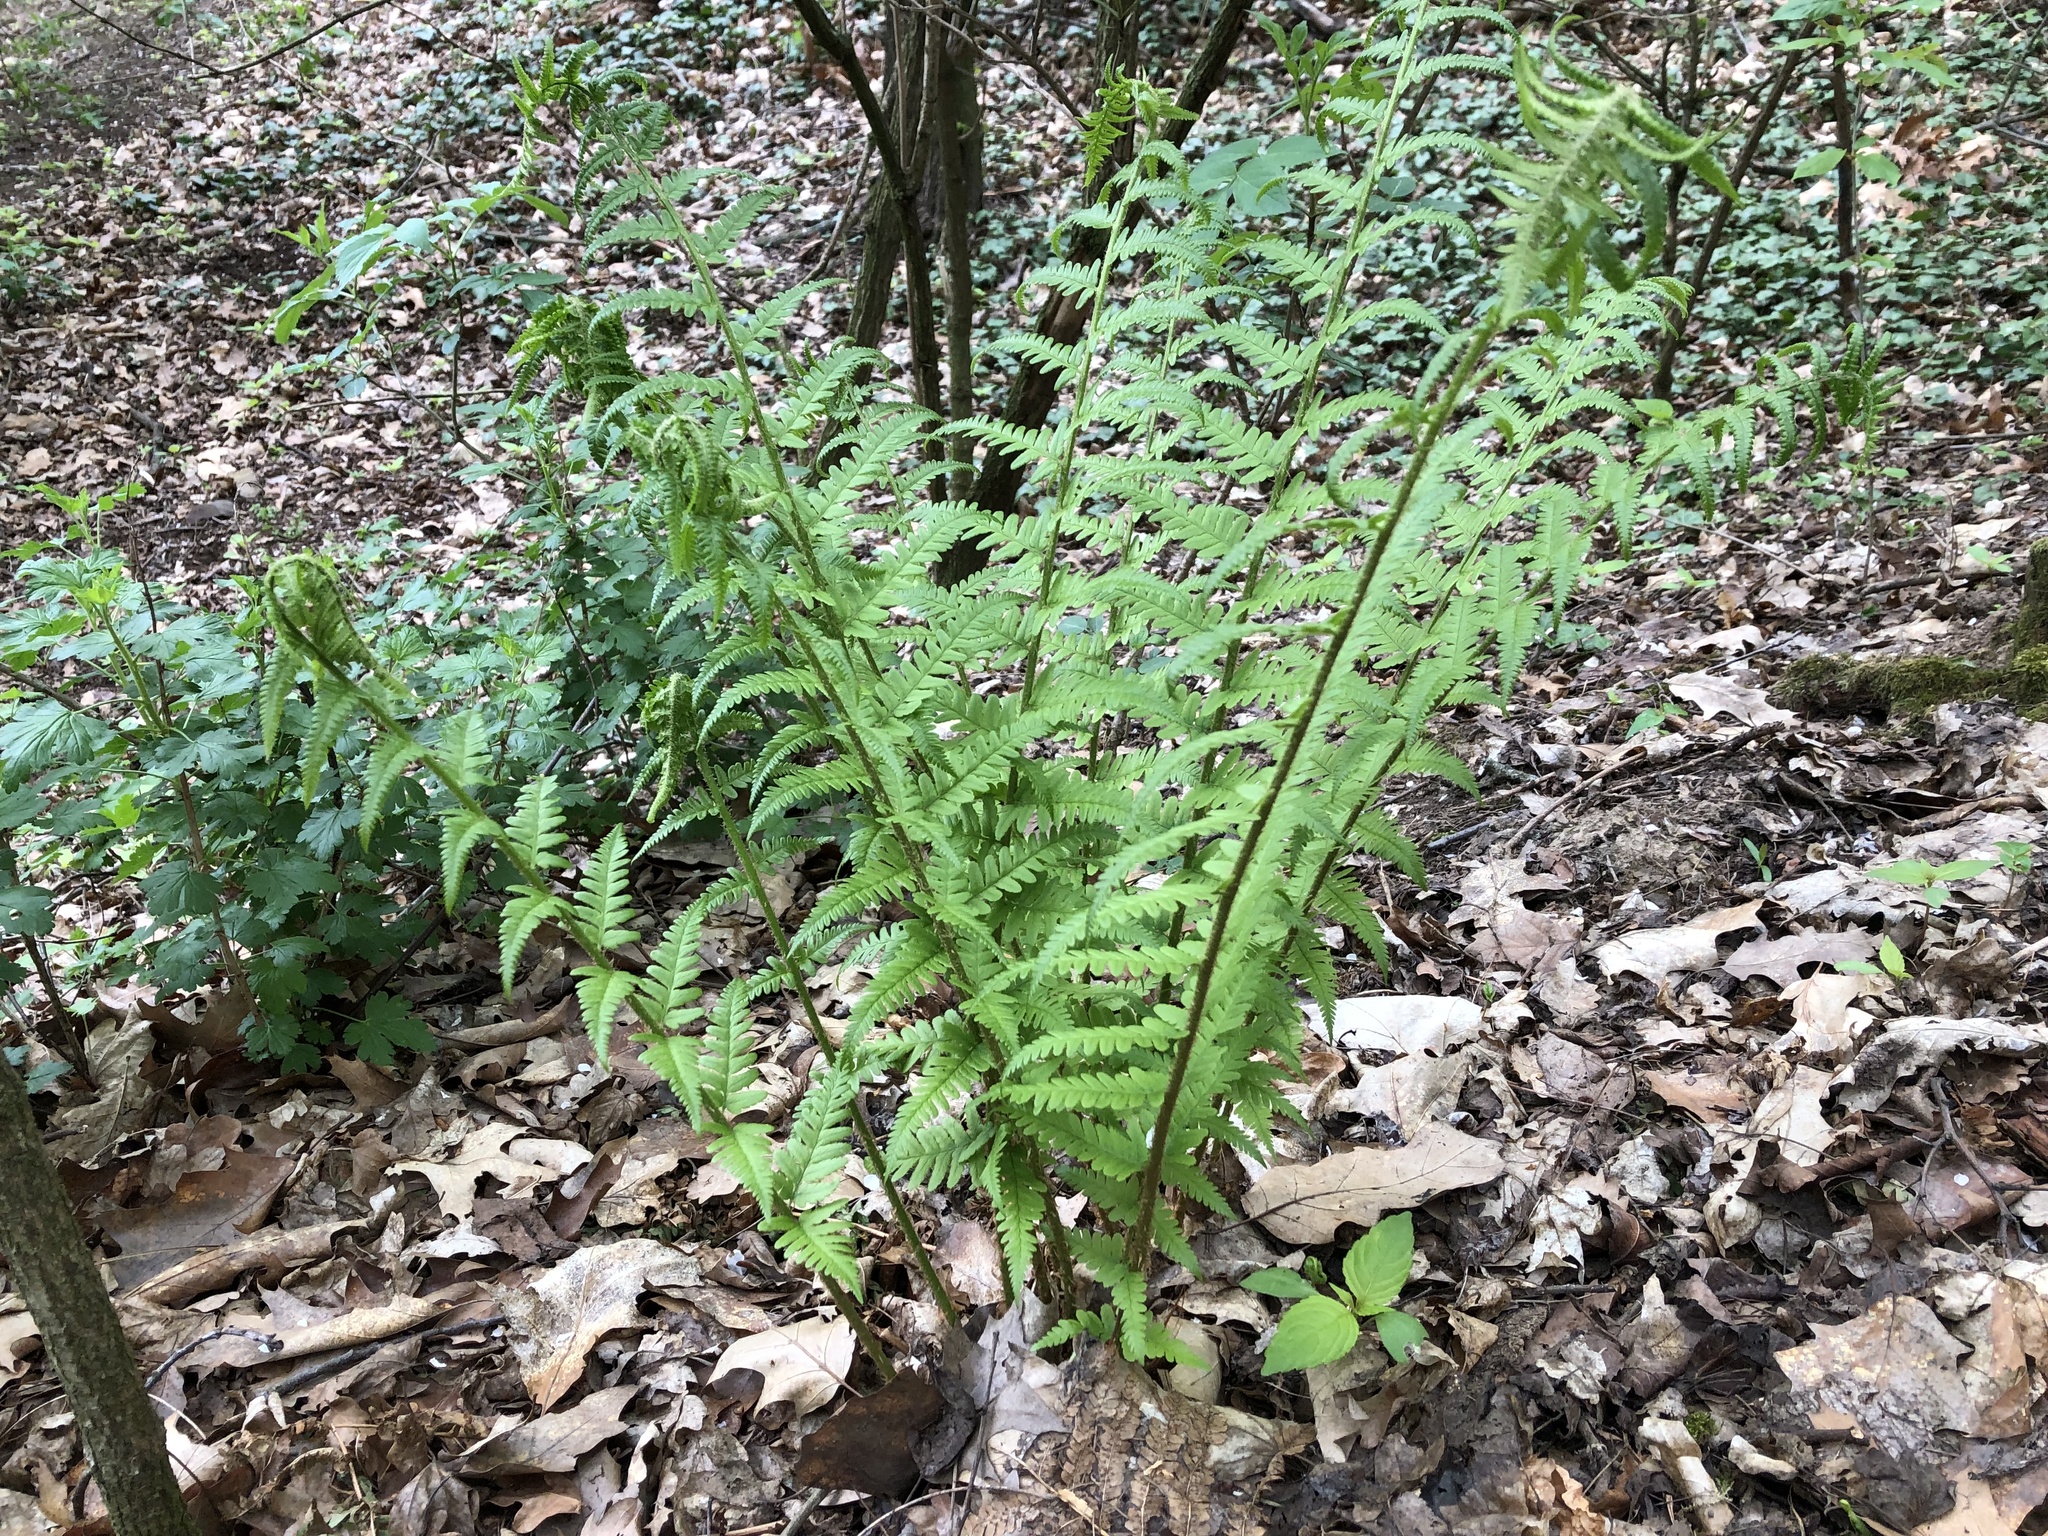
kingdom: Plantae
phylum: Tracheophyta
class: Polypodiopsida
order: Polypodiales
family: Dryopteridaceae
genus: Dryopteris
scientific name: Dryopteris filix-mas
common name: Male fern
